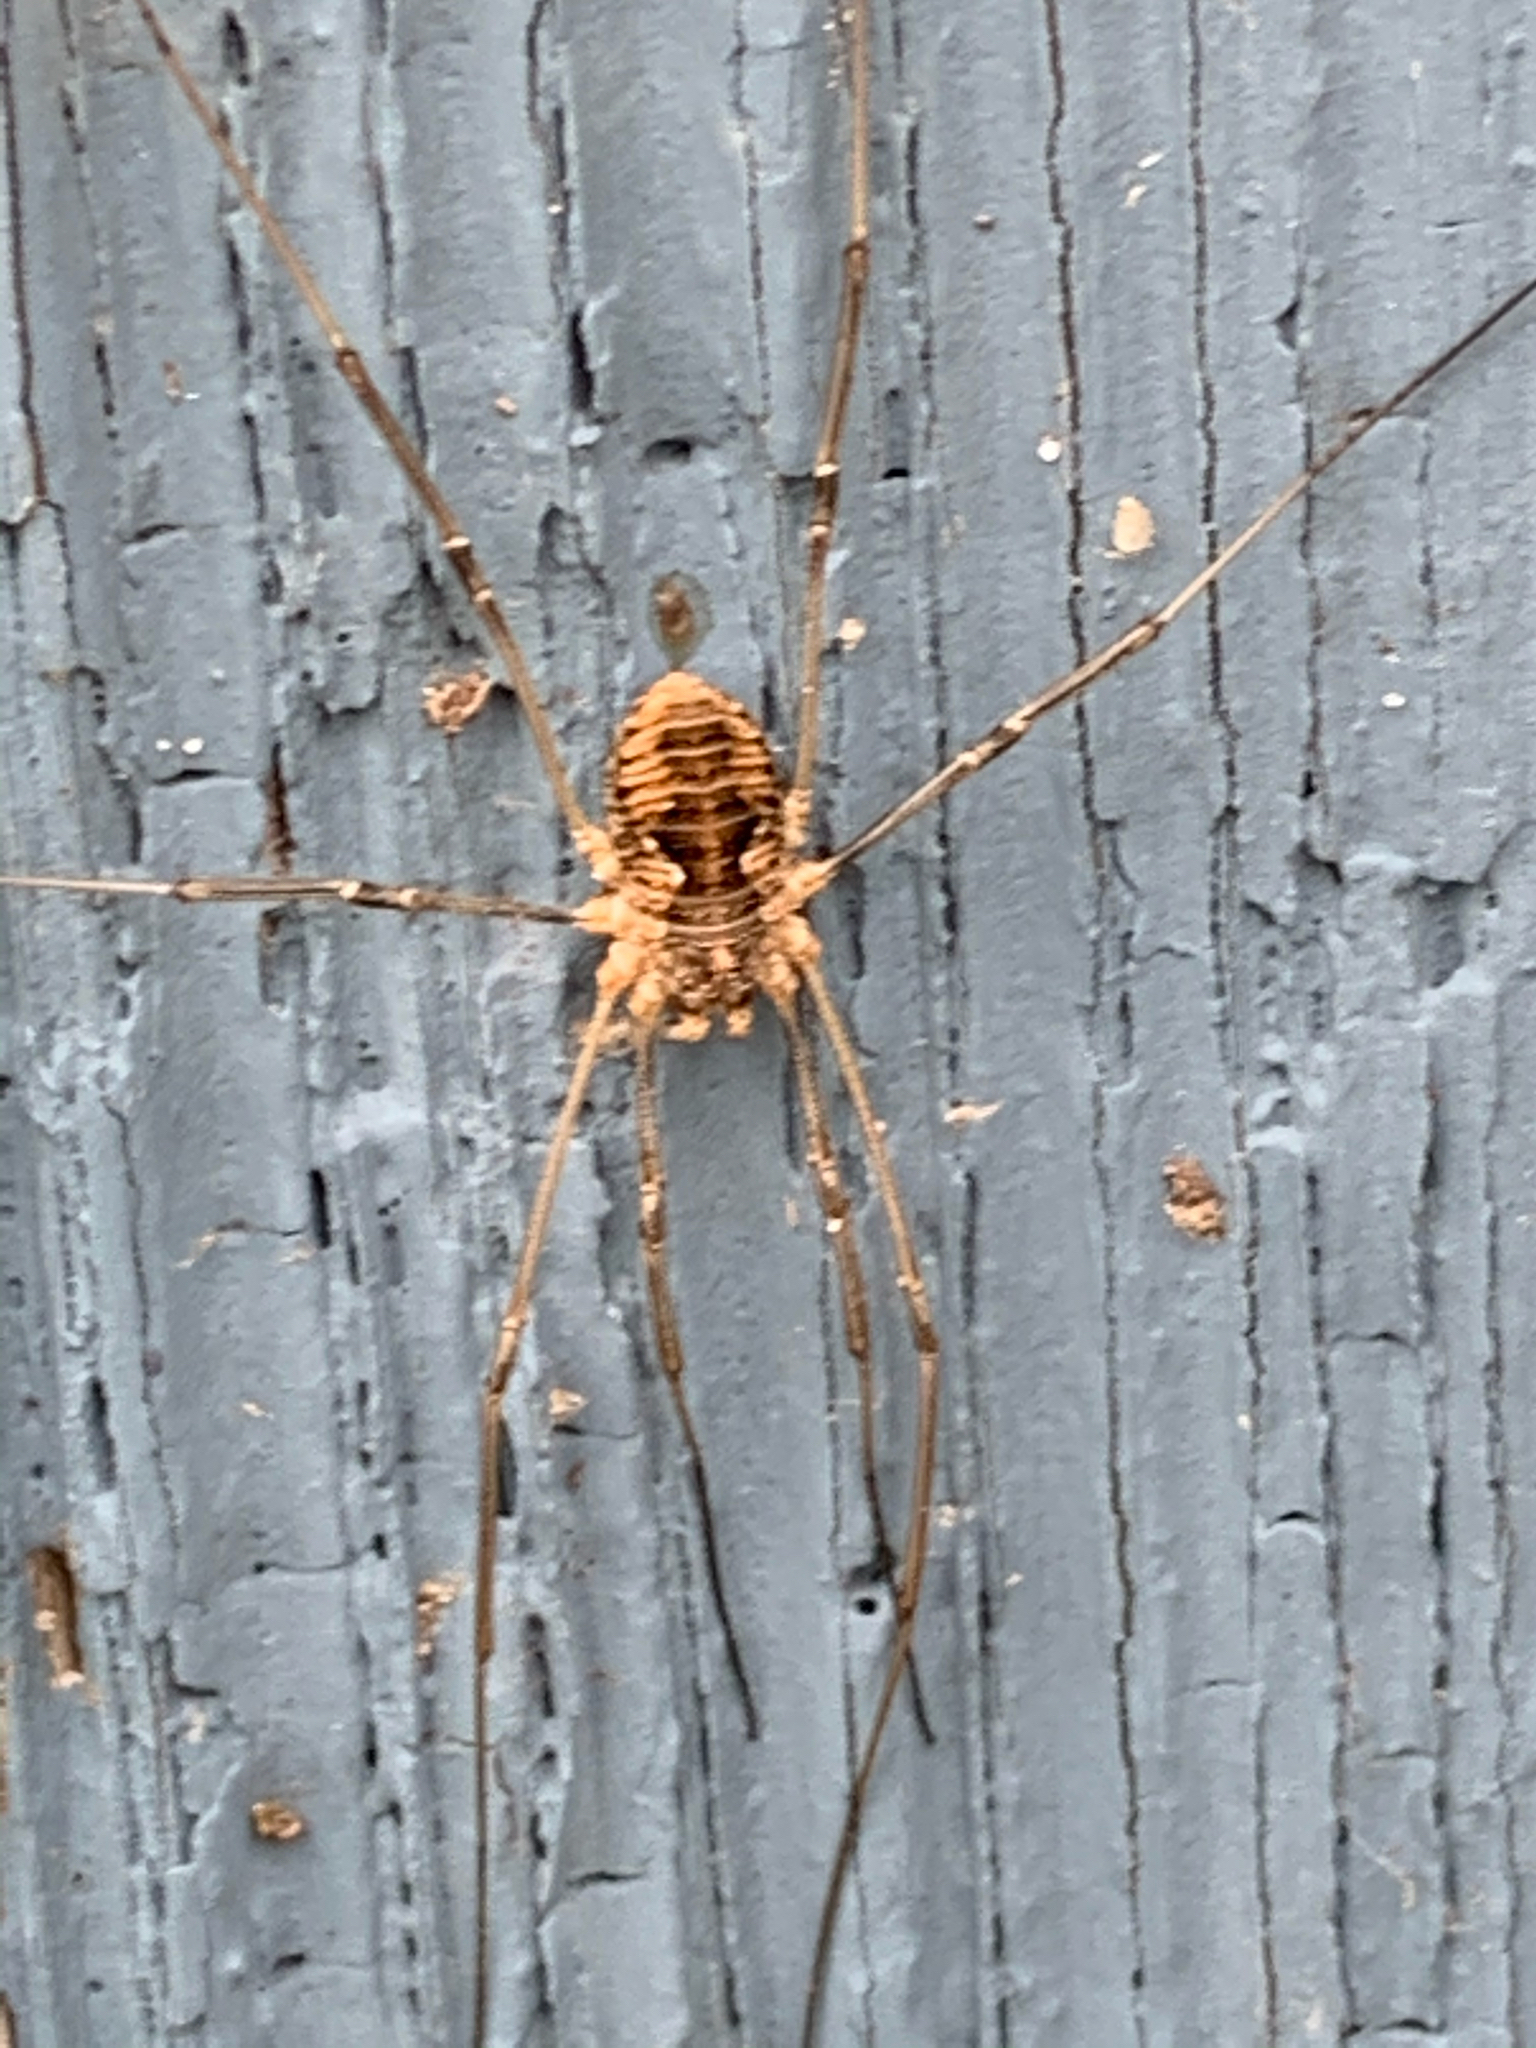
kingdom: Animalia
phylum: Arthropoda
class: Arachnida
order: Opiliones
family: Phalangiidae
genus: Phalangium
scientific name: Phalangium opilio
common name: Daddy longleg
